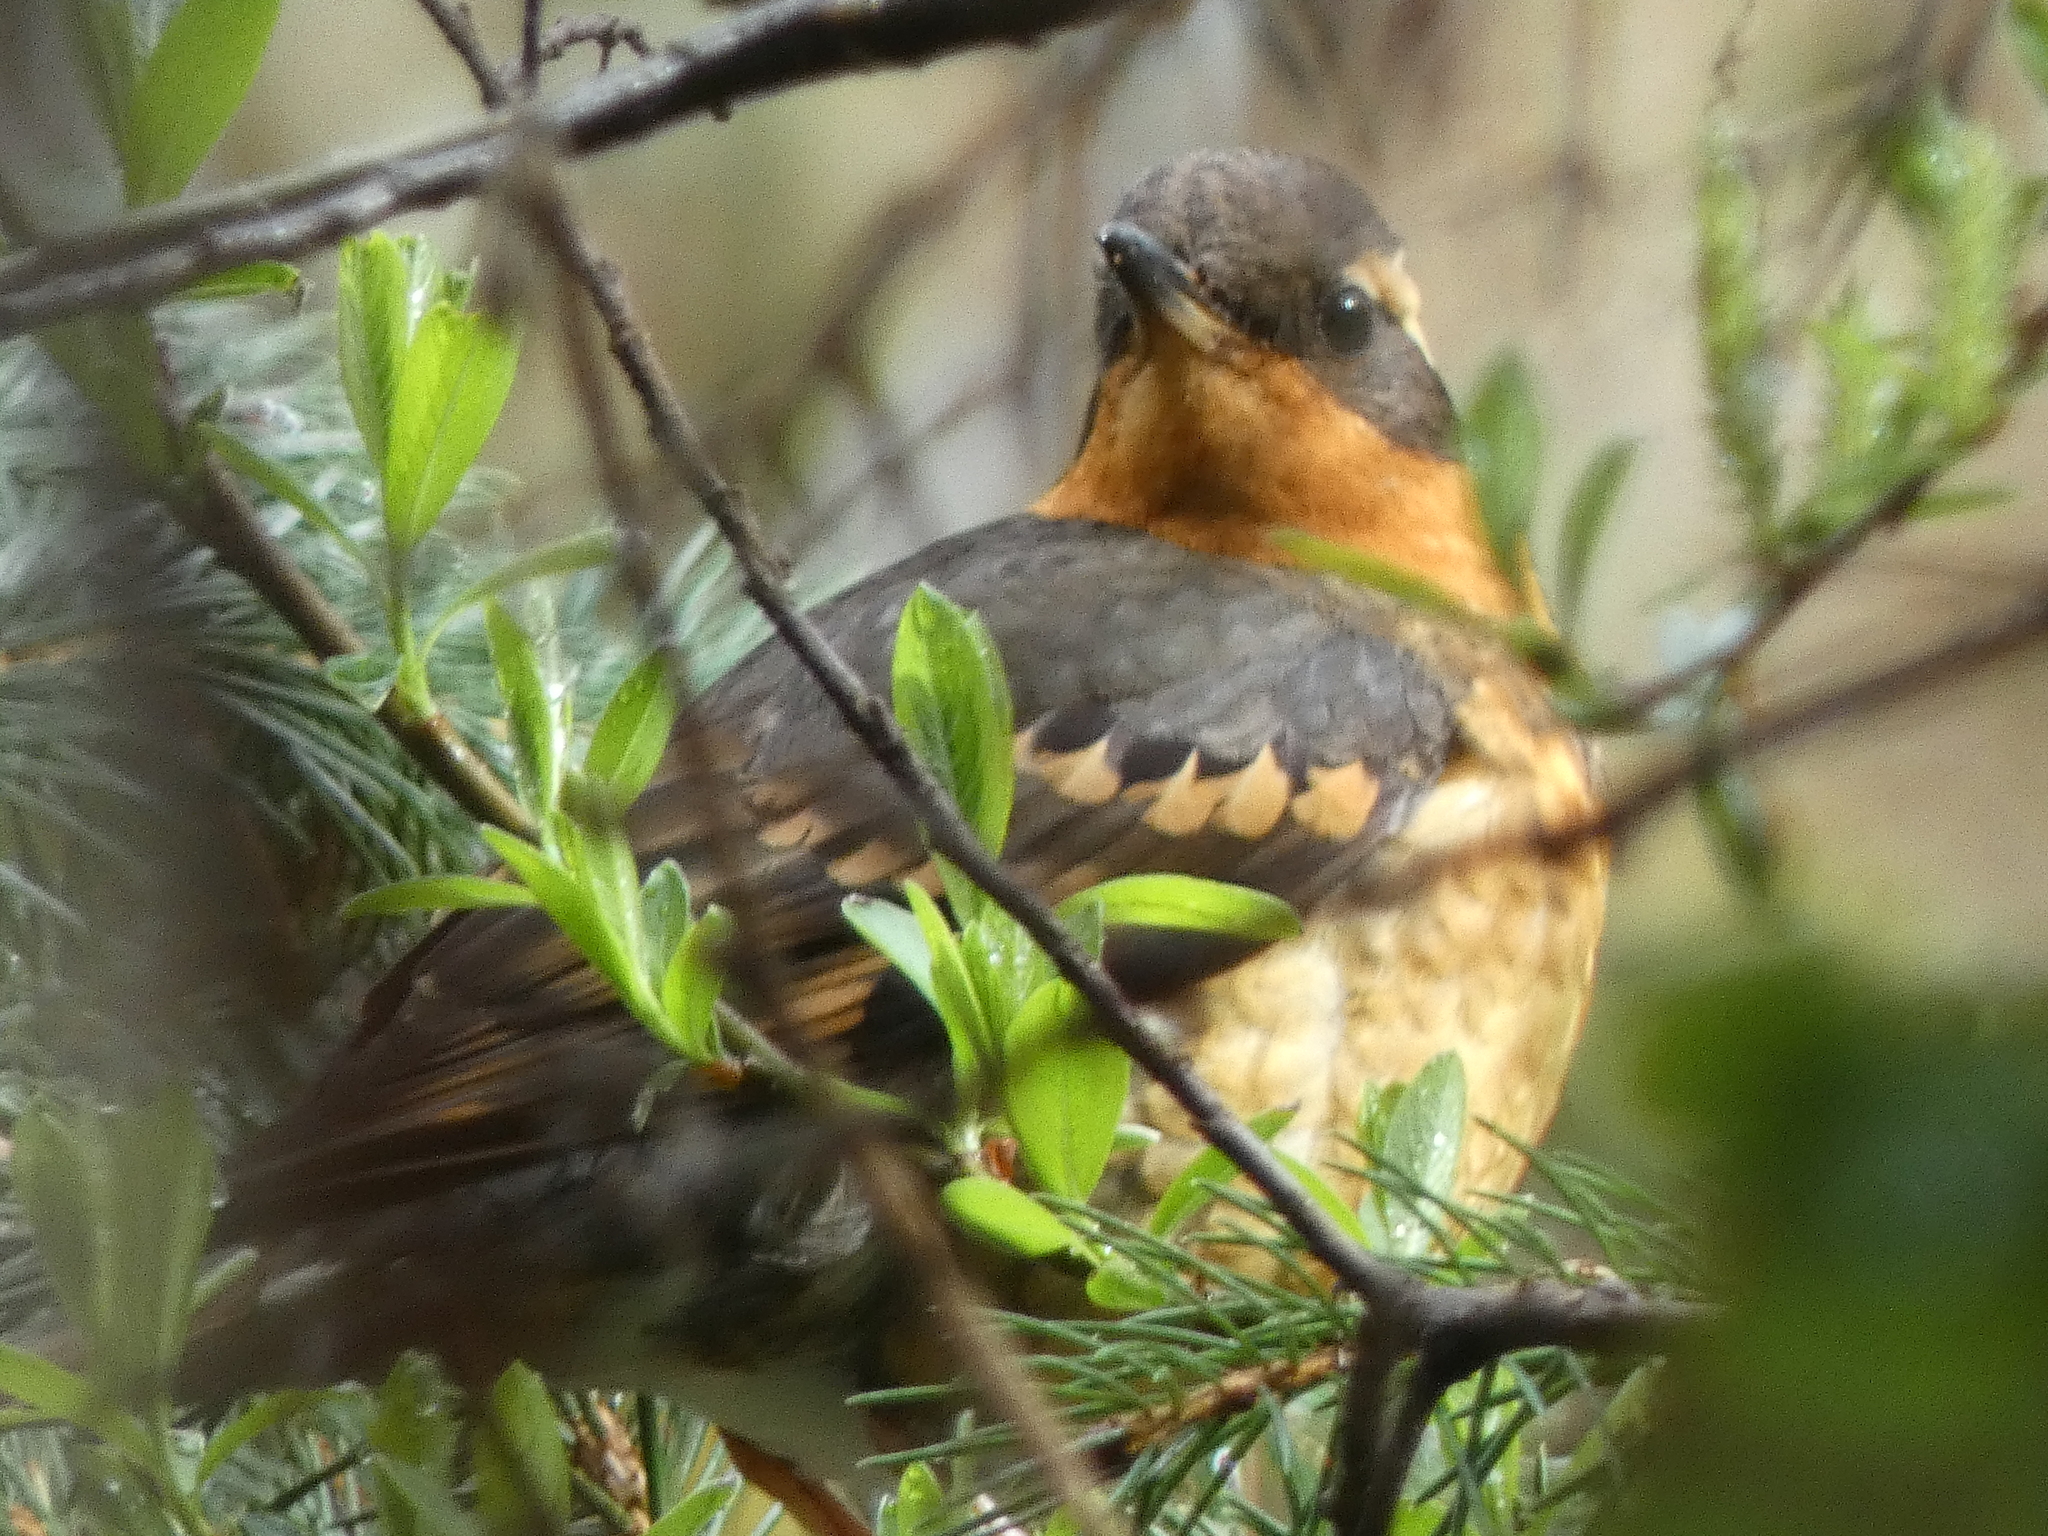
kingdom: Animalia
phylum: Chordata
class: Aves
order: Passeriformes
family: Turdidae
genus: Ixoreus
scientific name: Ixoreus naevius
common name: Varied thrush
